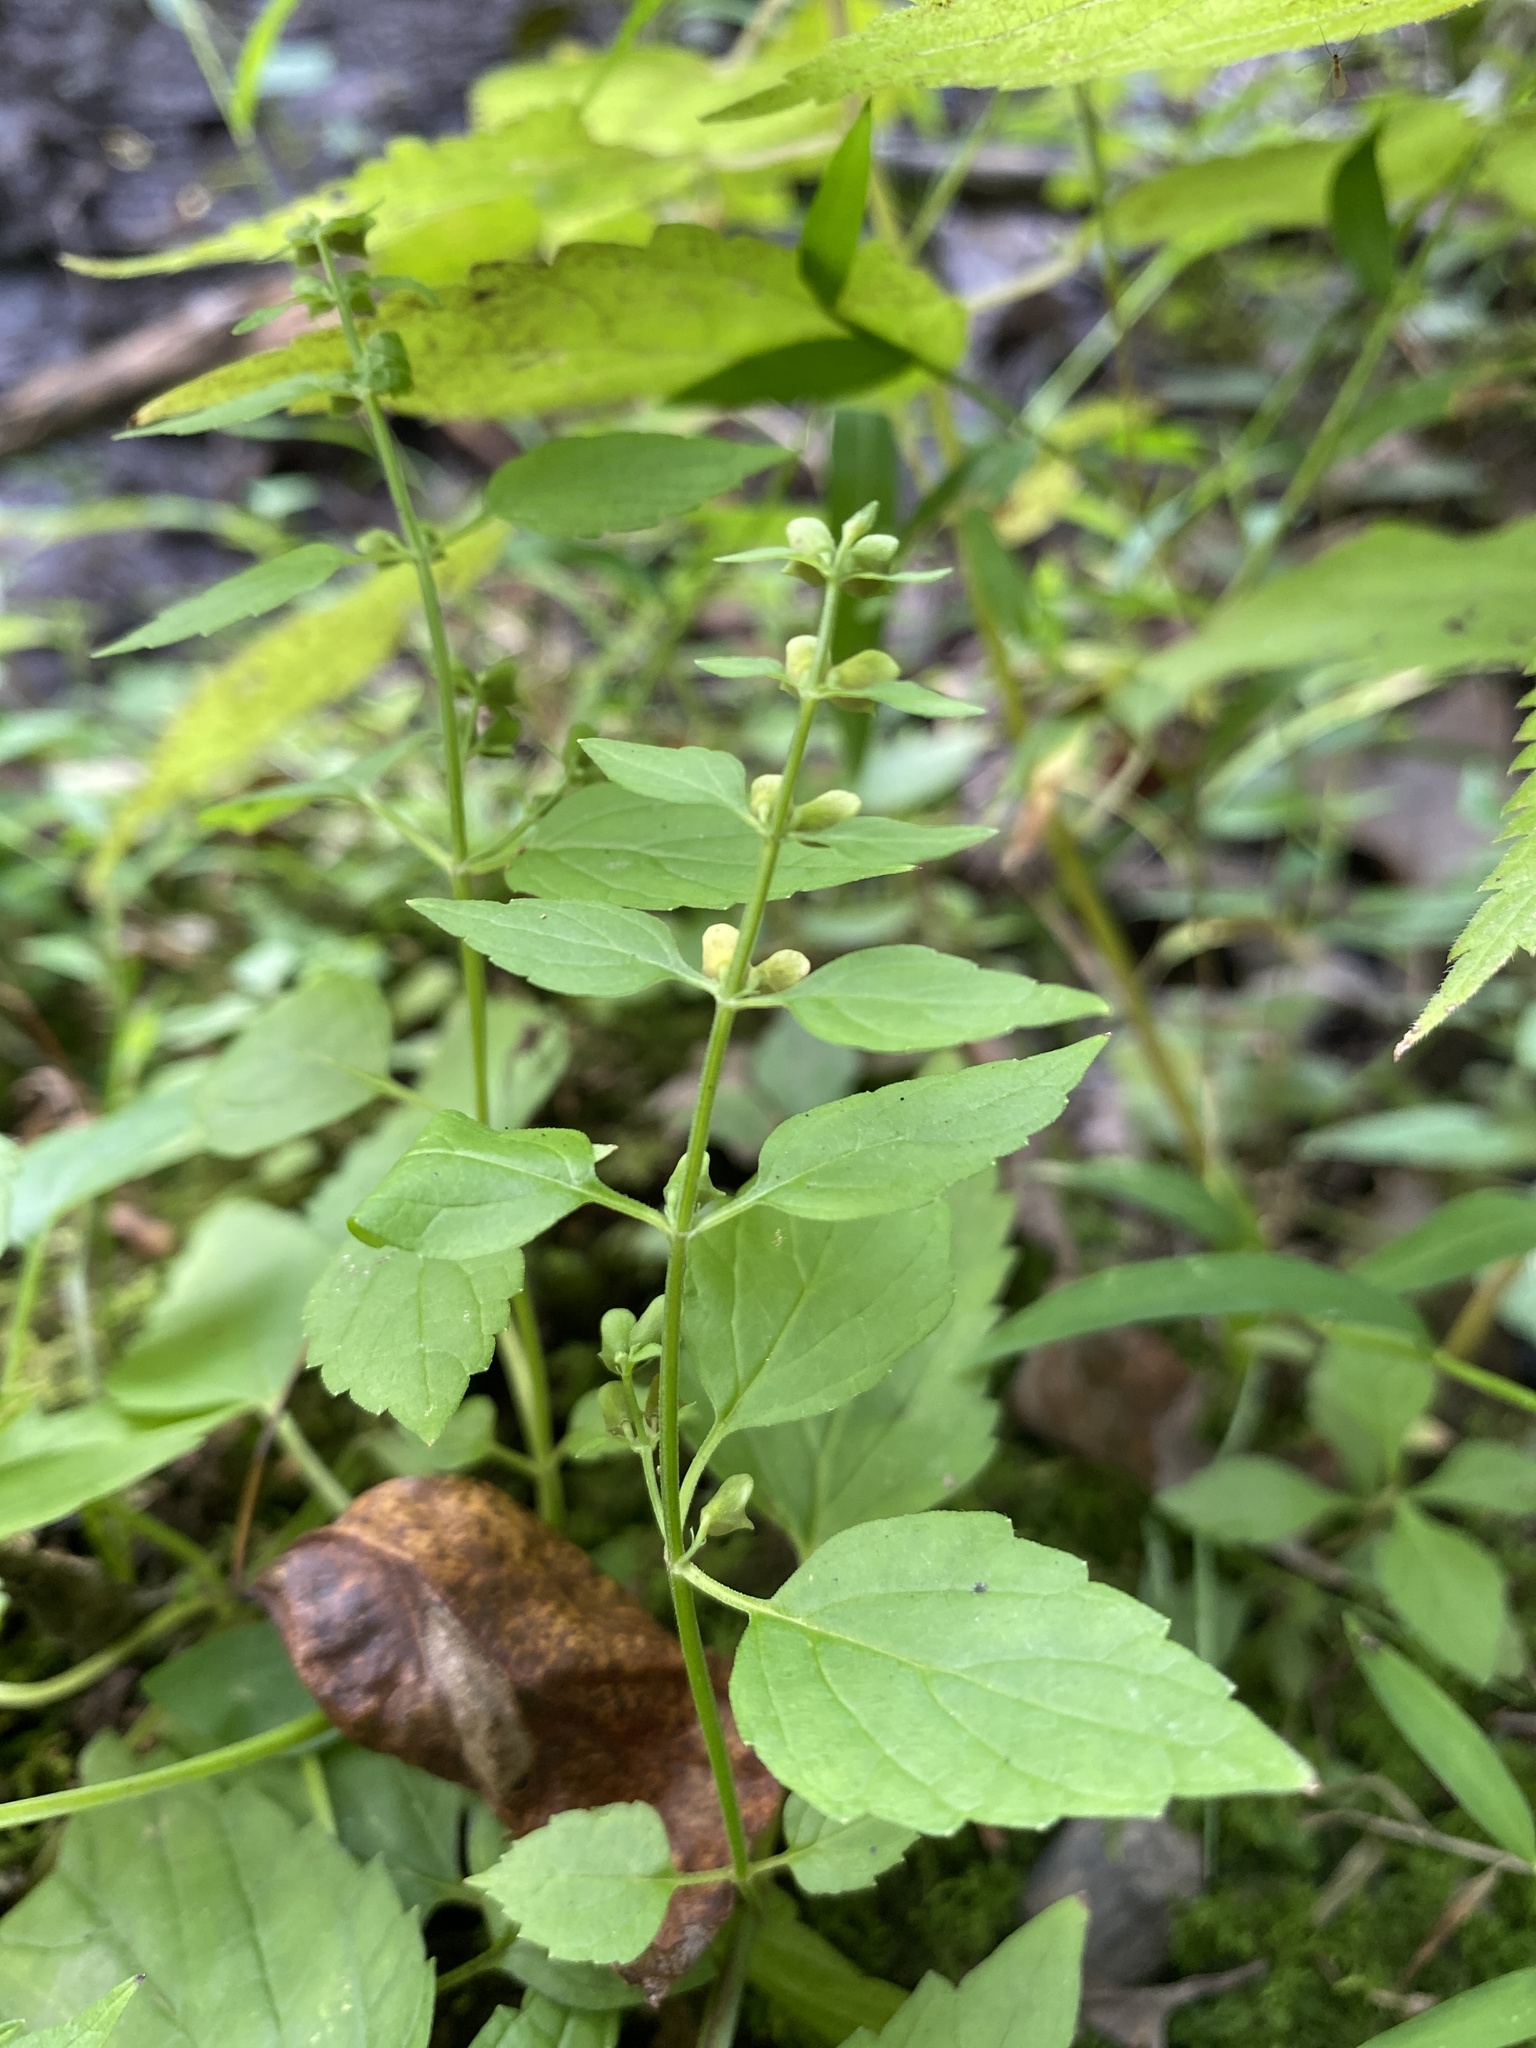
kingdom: Plantae
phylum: Tracheophyta
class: Magnoliopsida
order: Lamiales
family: Lamiaceae
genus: Scutellaria
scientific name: Scutellaria lateriflora
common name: Blue skullcap
